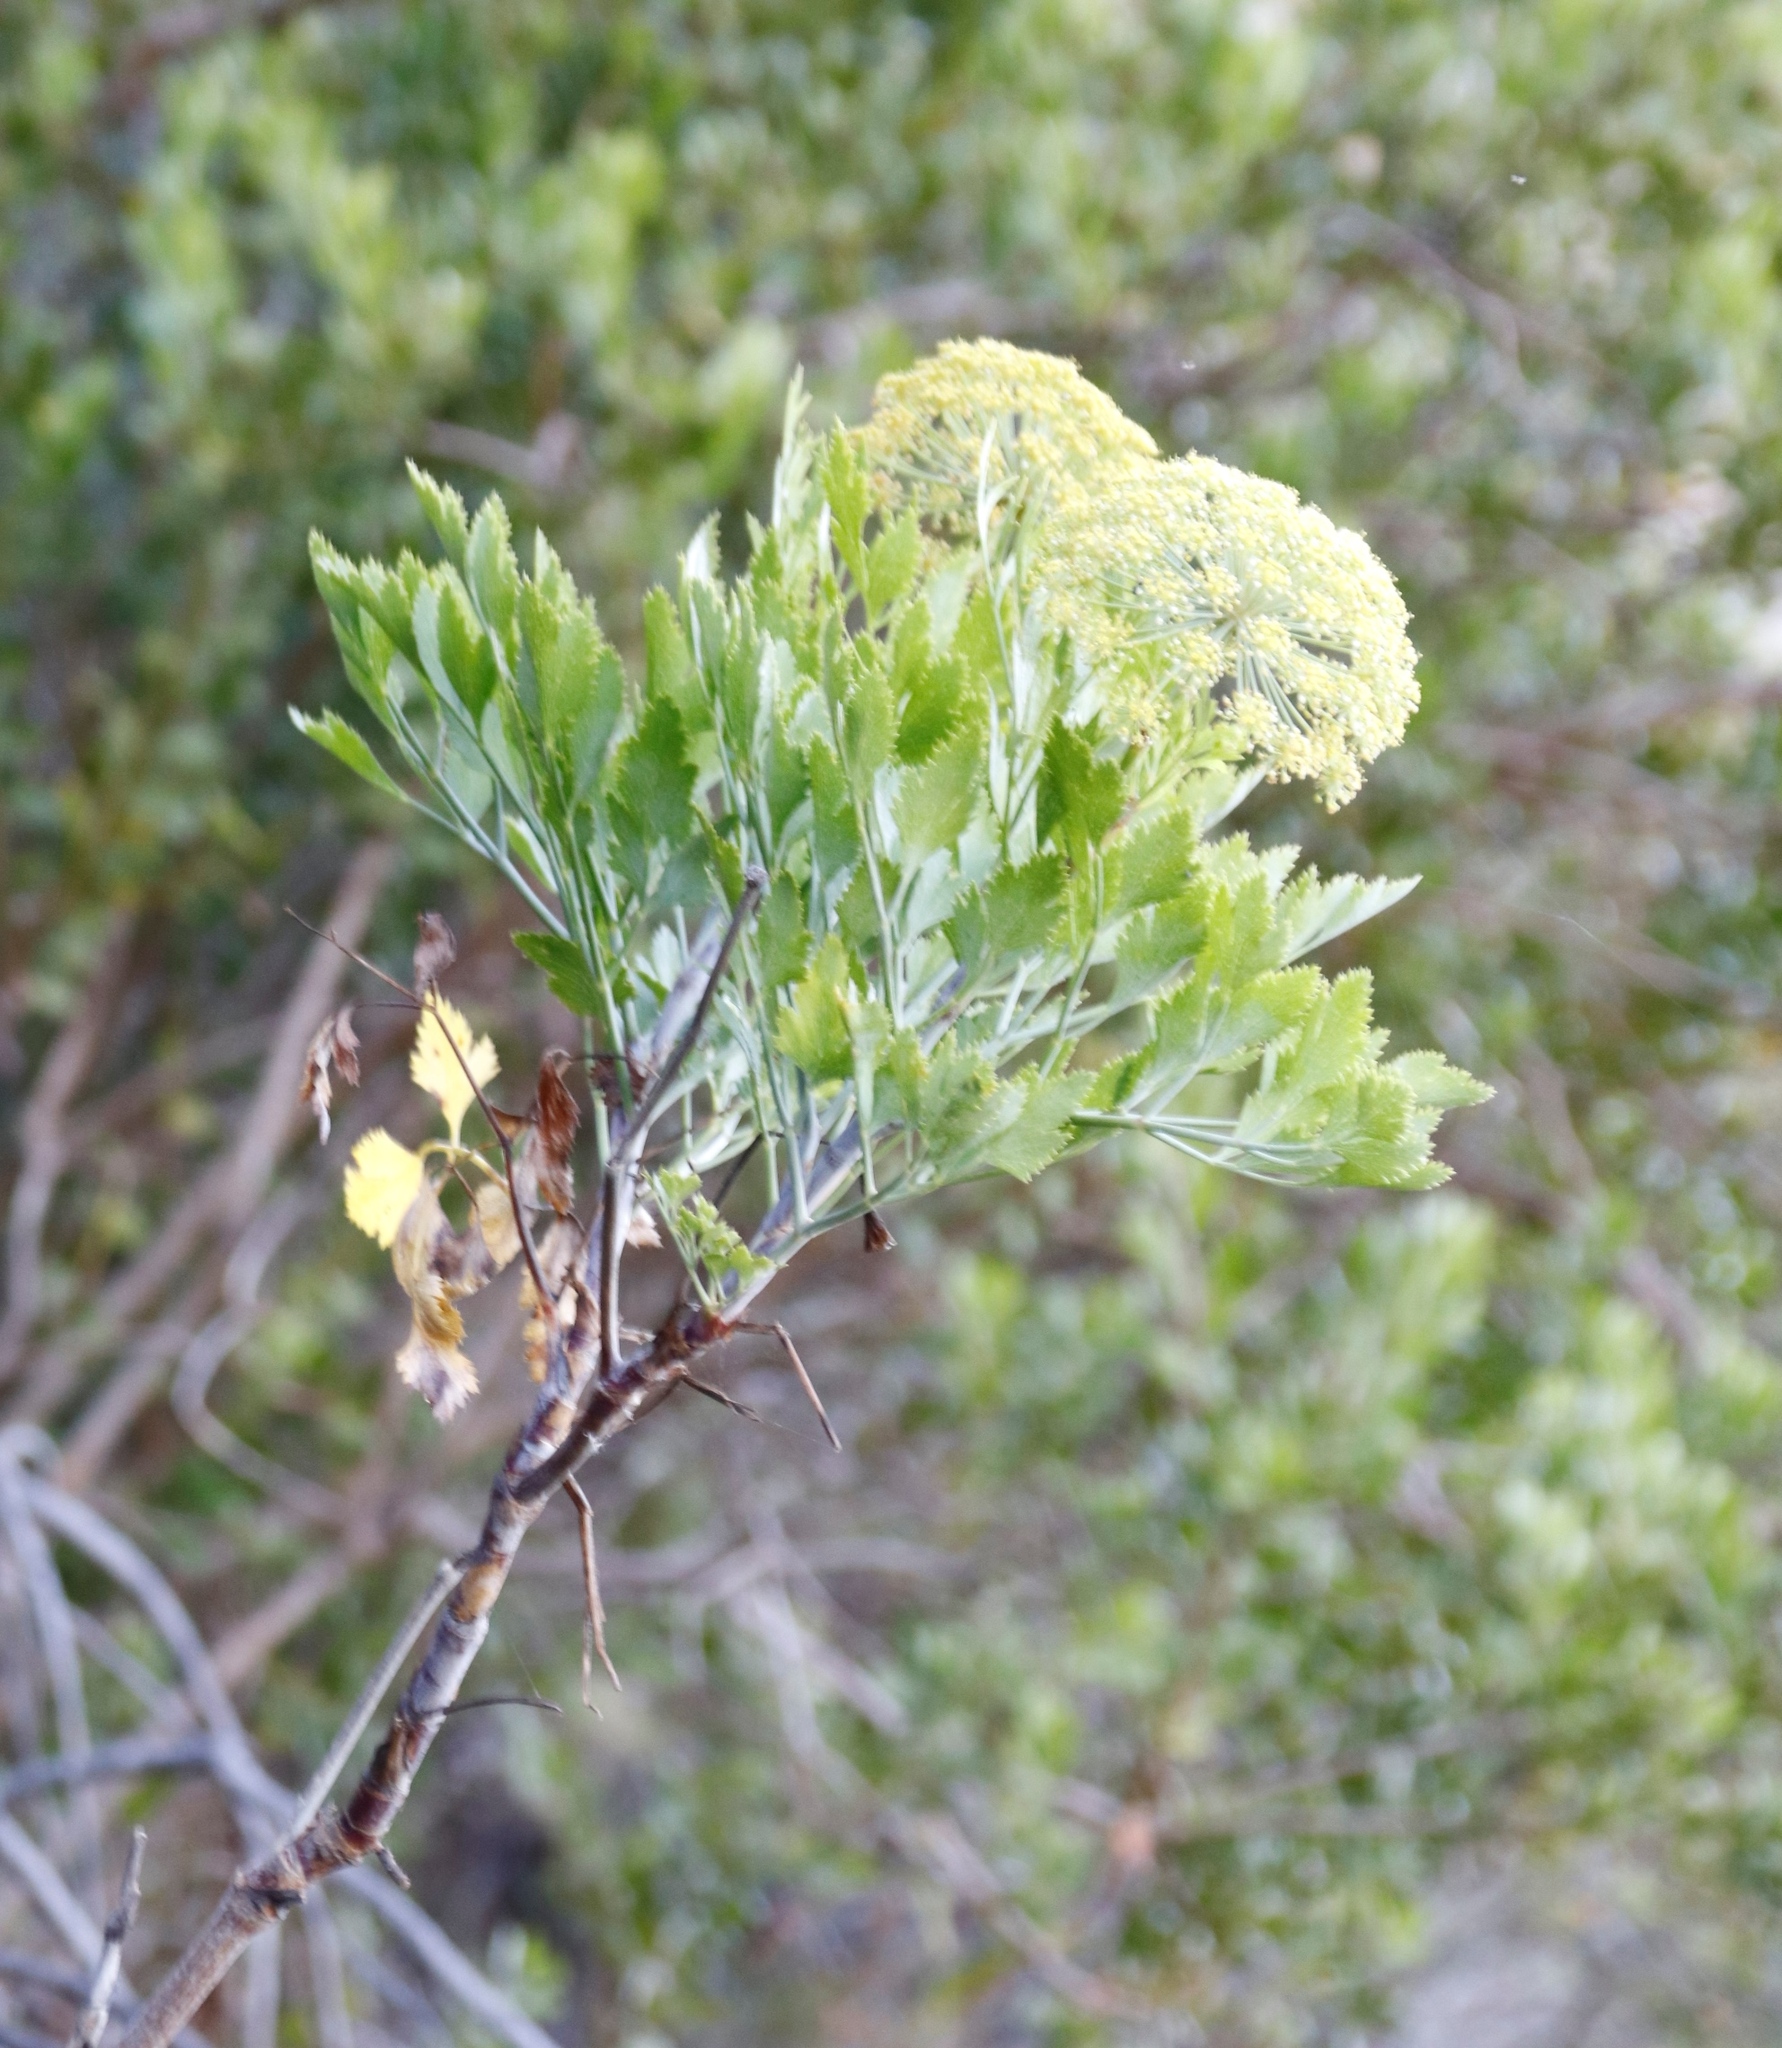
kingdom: Plantae
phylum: Tracheophyta
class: Magnoliopsida
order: Apiales
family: Apiaceae
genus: Notobubon
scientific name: Notobubon galbanum
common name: Blisterbush
